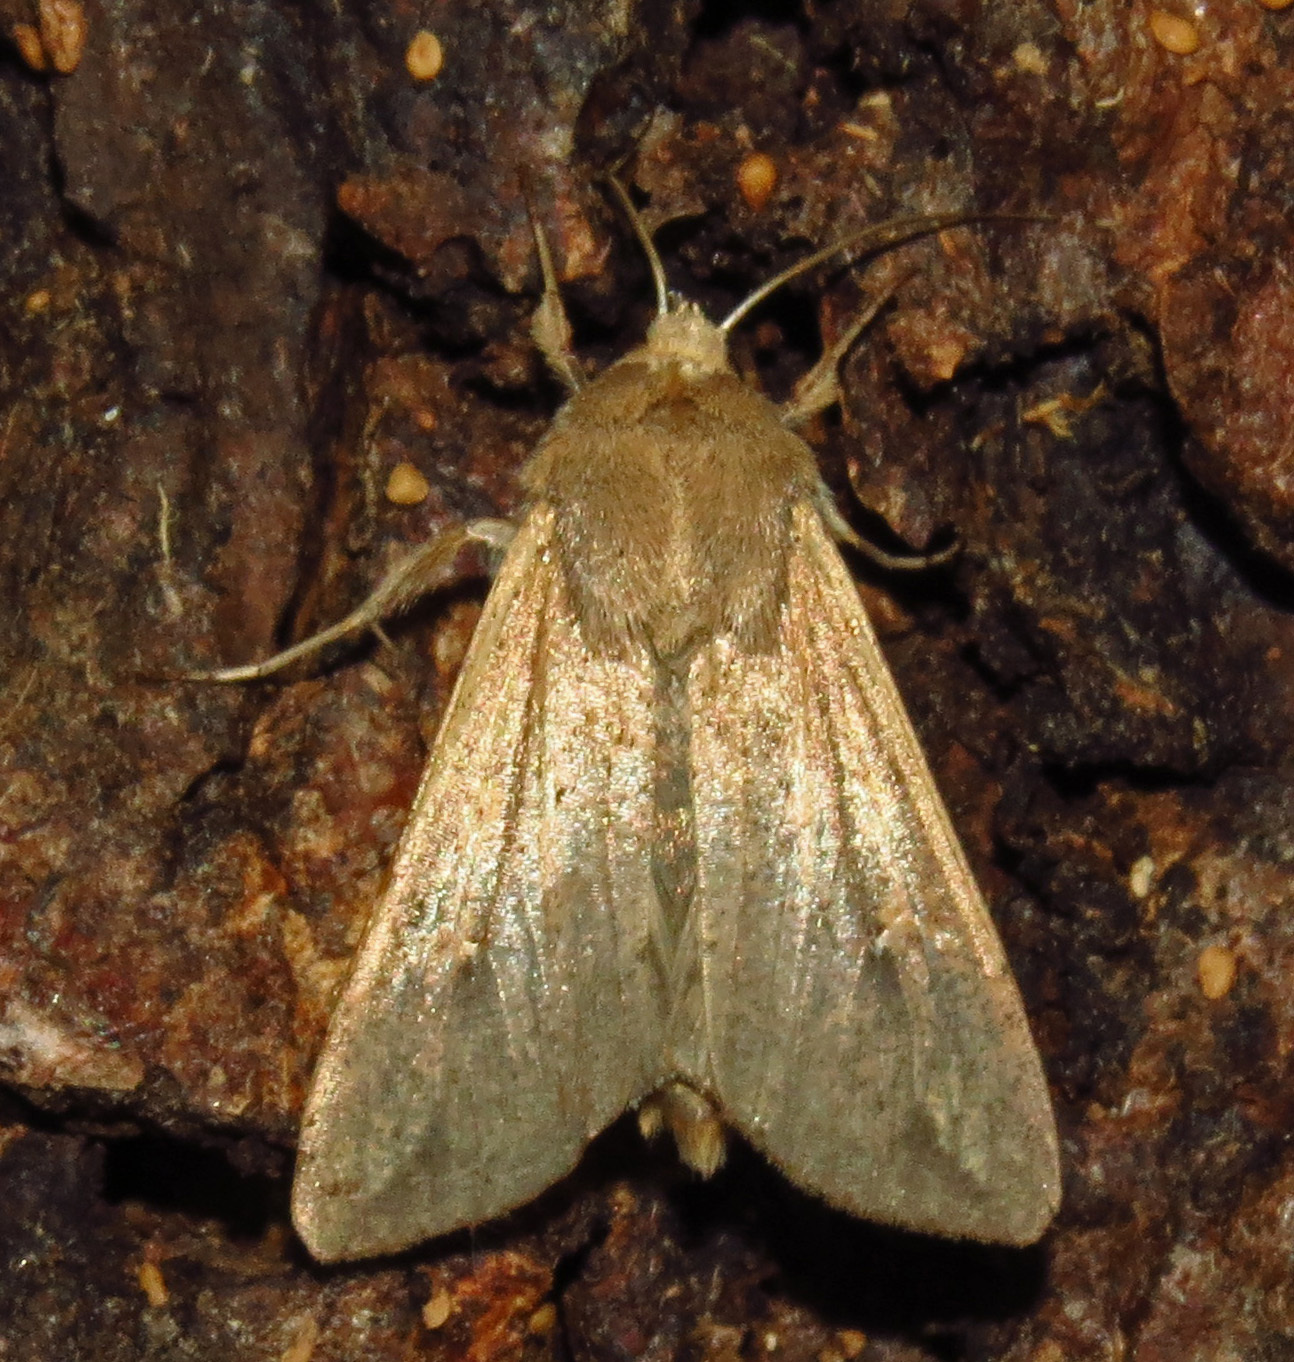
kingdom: Animalia
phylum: Arthropoda
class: Insecta
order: Lepidoptera
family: Noctuidae
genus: Mythimna
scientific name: Mythimna unipuncta
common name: White-speck
